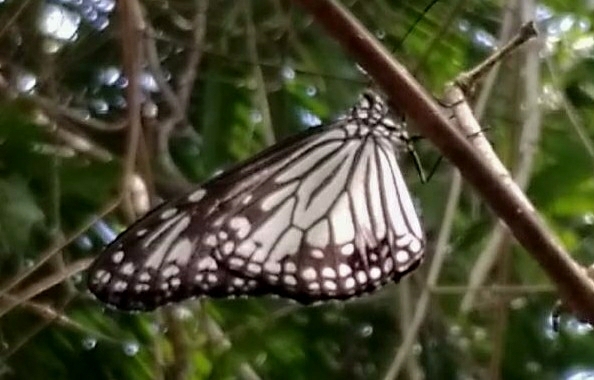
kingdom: Animalia
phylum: Arthropoda
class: Insecta
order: Lepidoptera
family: Nymphalidae
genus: Parantica
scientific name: Parantica aglea
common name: Glassy tiger
